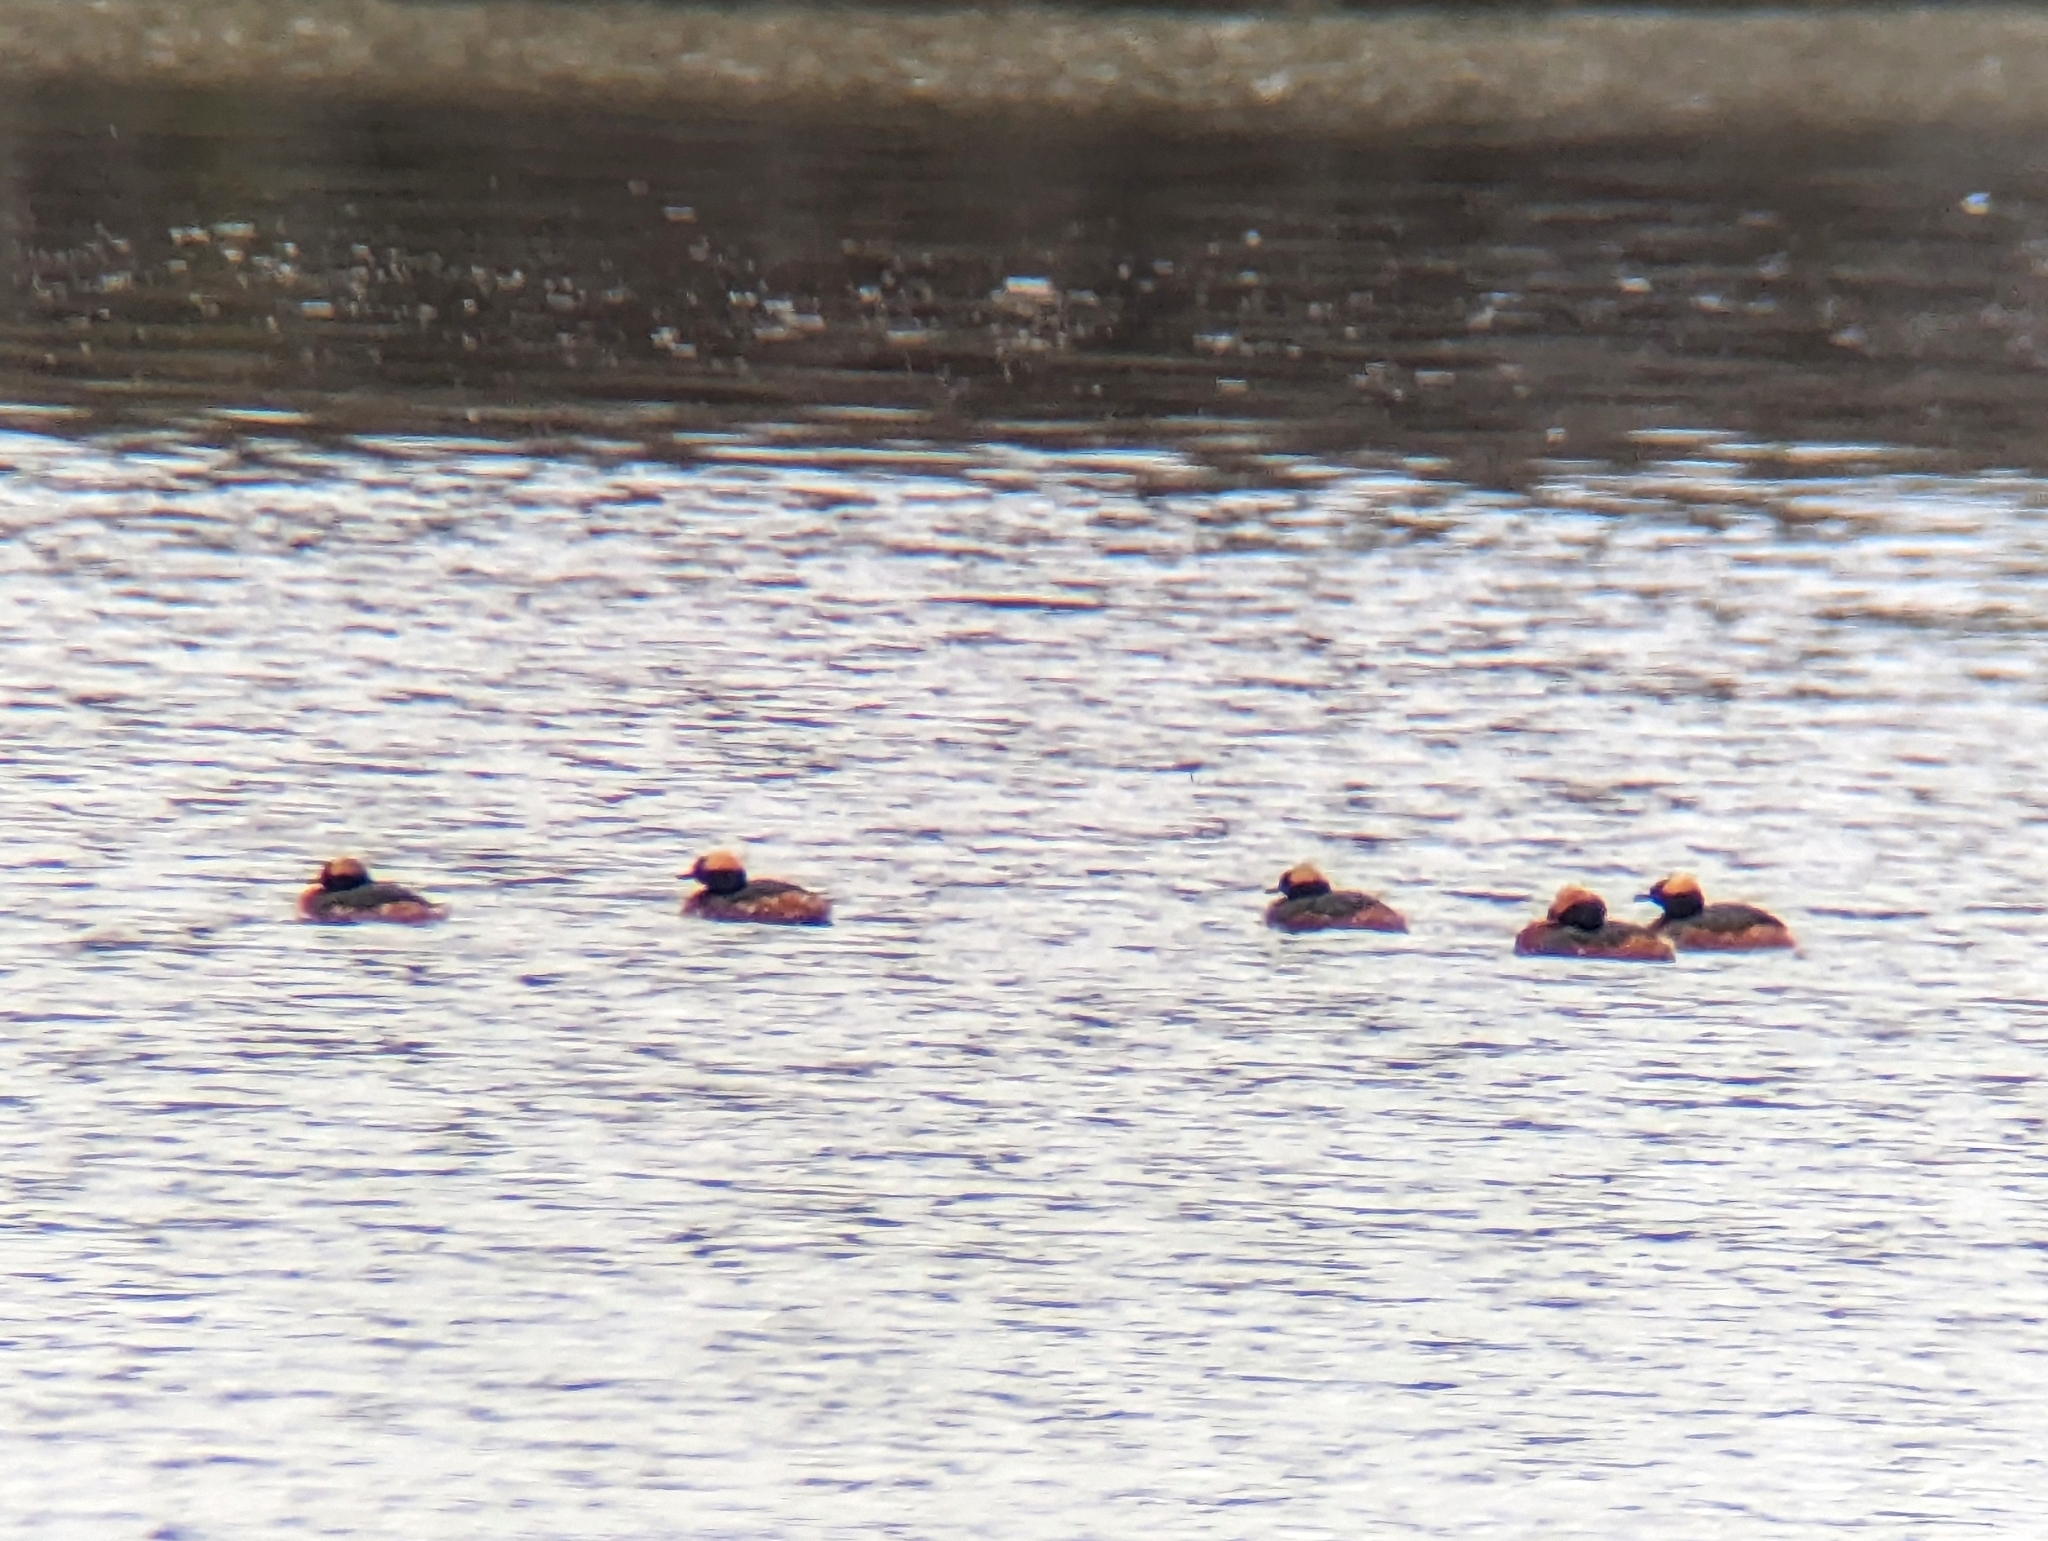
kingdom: Animalia
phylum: Chordata
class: Aves
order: Podicipediformes
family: Podicipedidae
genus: Podiceps
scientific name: Podiceps auritus
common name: Horned grebe
